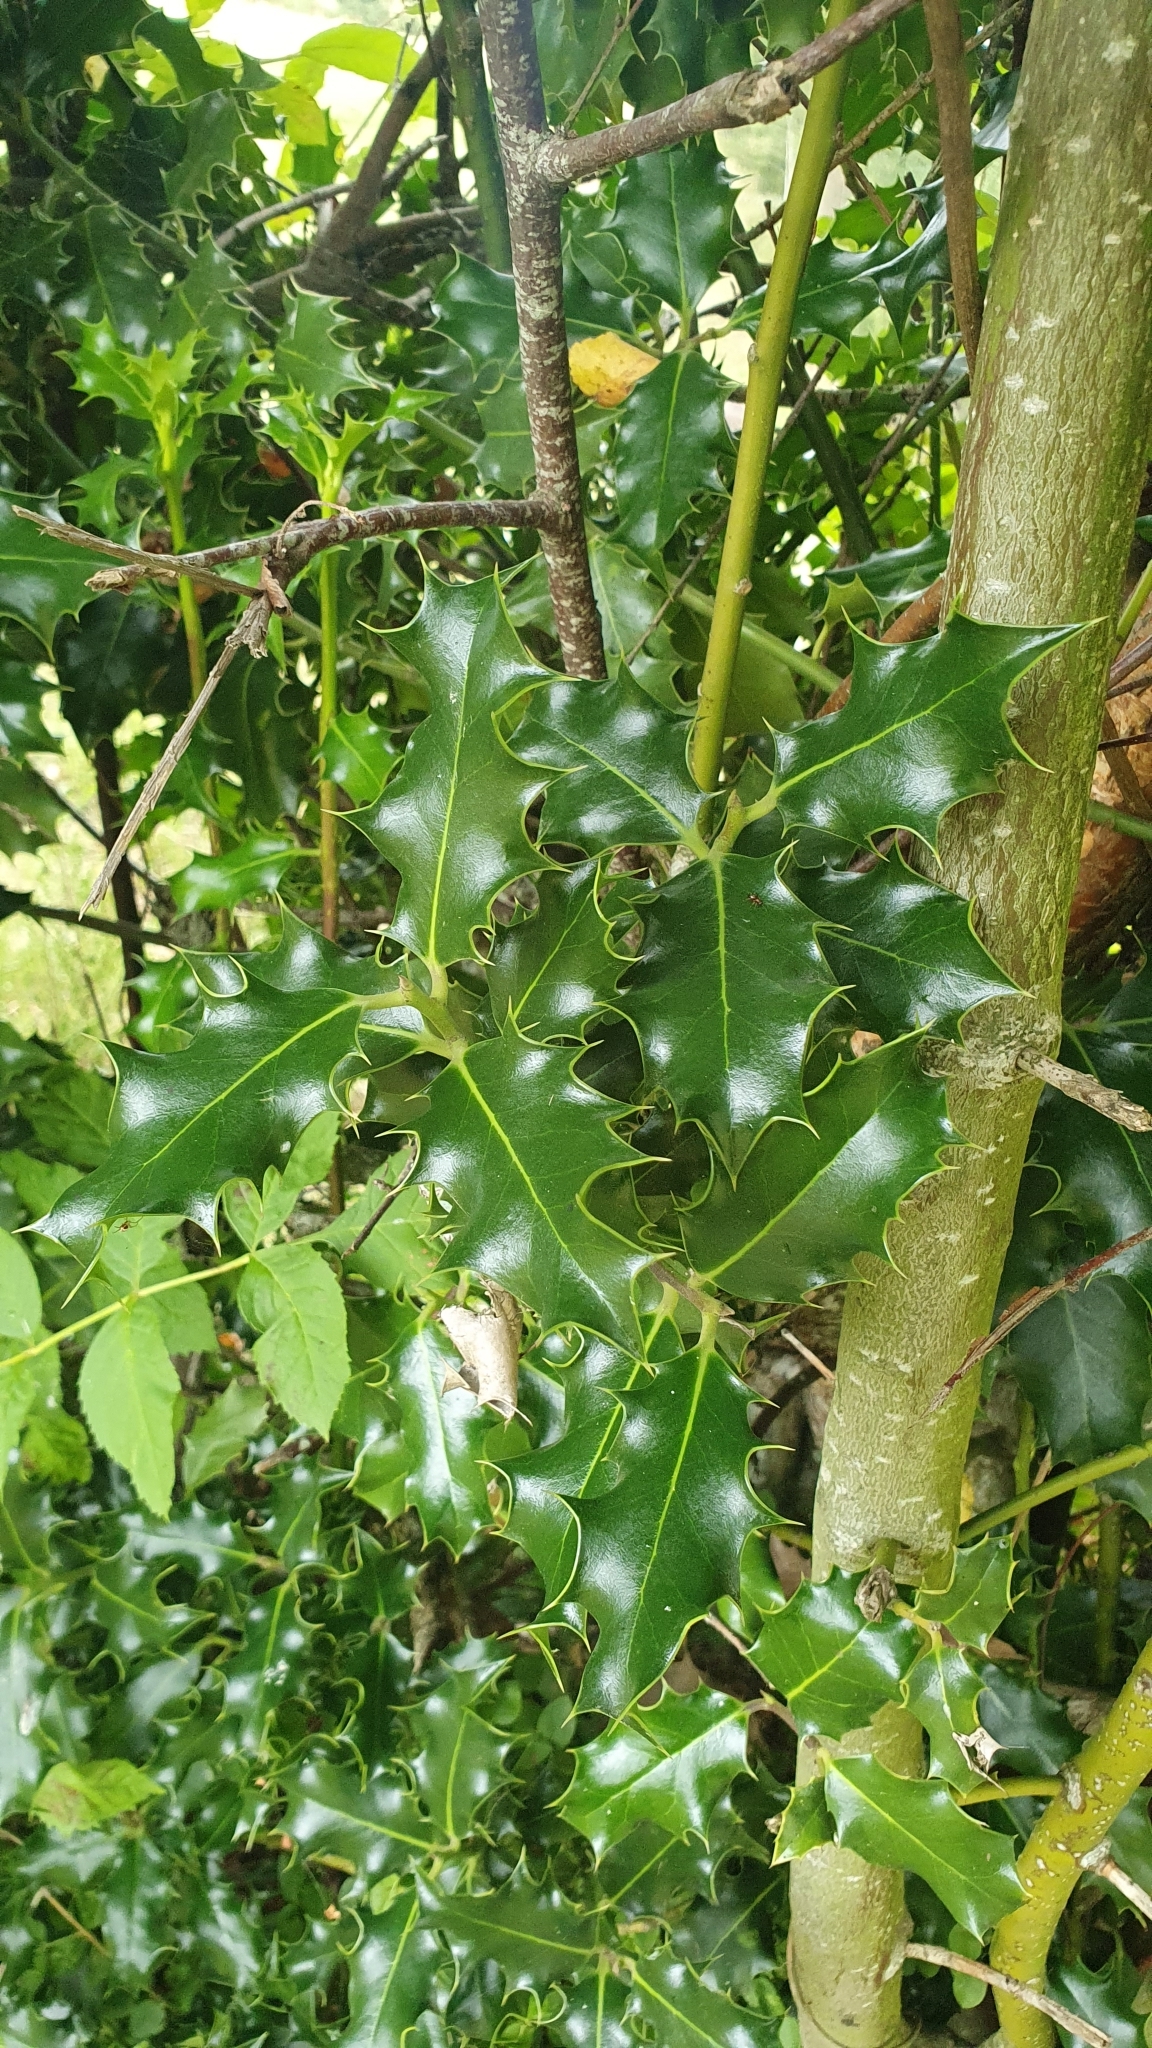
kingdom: Plantae
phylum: Tracheophyta
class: Magnoliopsida
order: Aquifoliales
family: Aquifoliaceae
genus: Ilex
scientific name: Ilex aquifolium
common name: English holly
